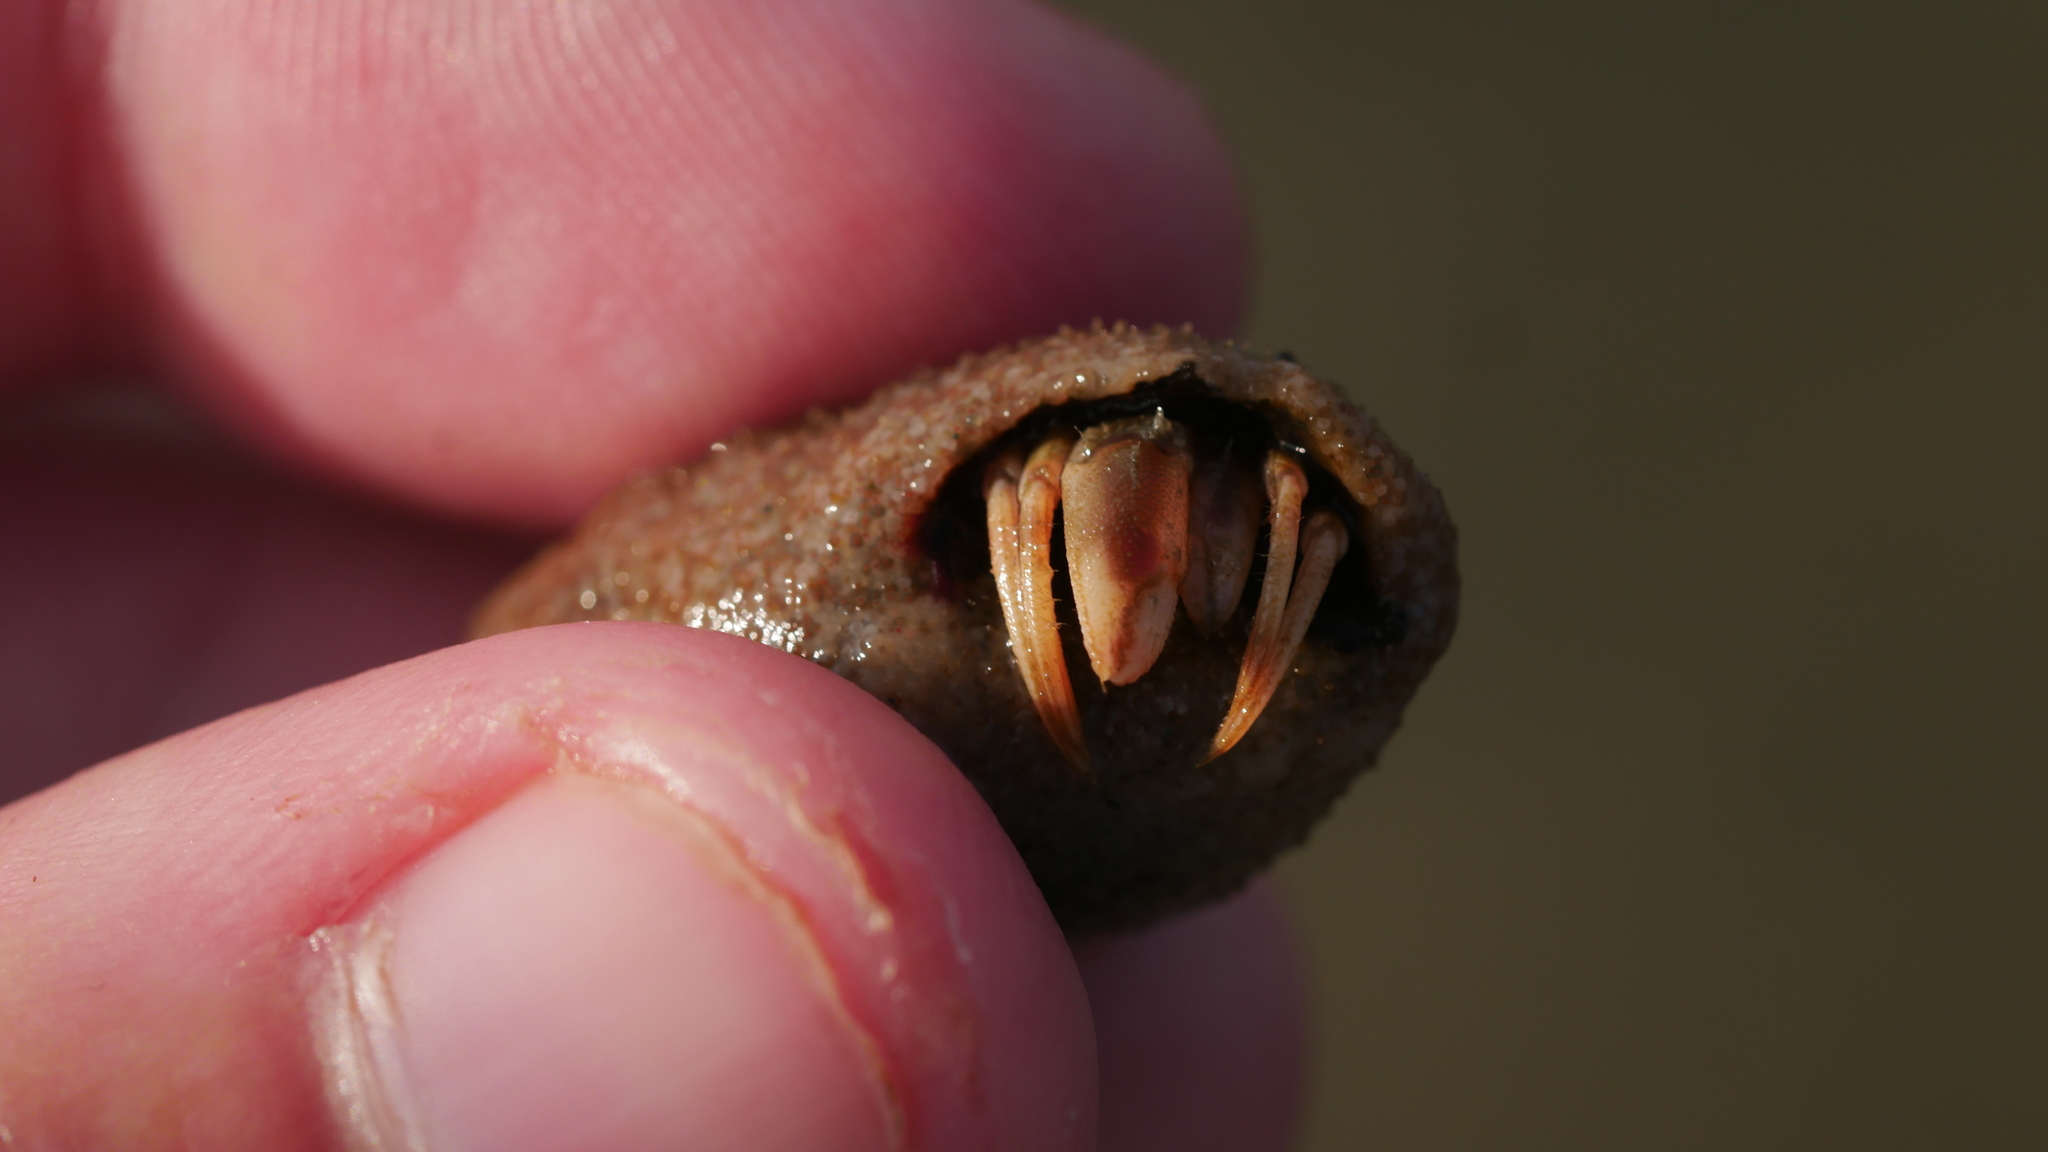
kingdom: Animalia
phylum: Arthropoda
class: Malacostraca
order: Decapoda
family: Paguridae
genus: Pagurus
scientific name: Pagurus longicarpus
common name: Long-armed hermit crab
